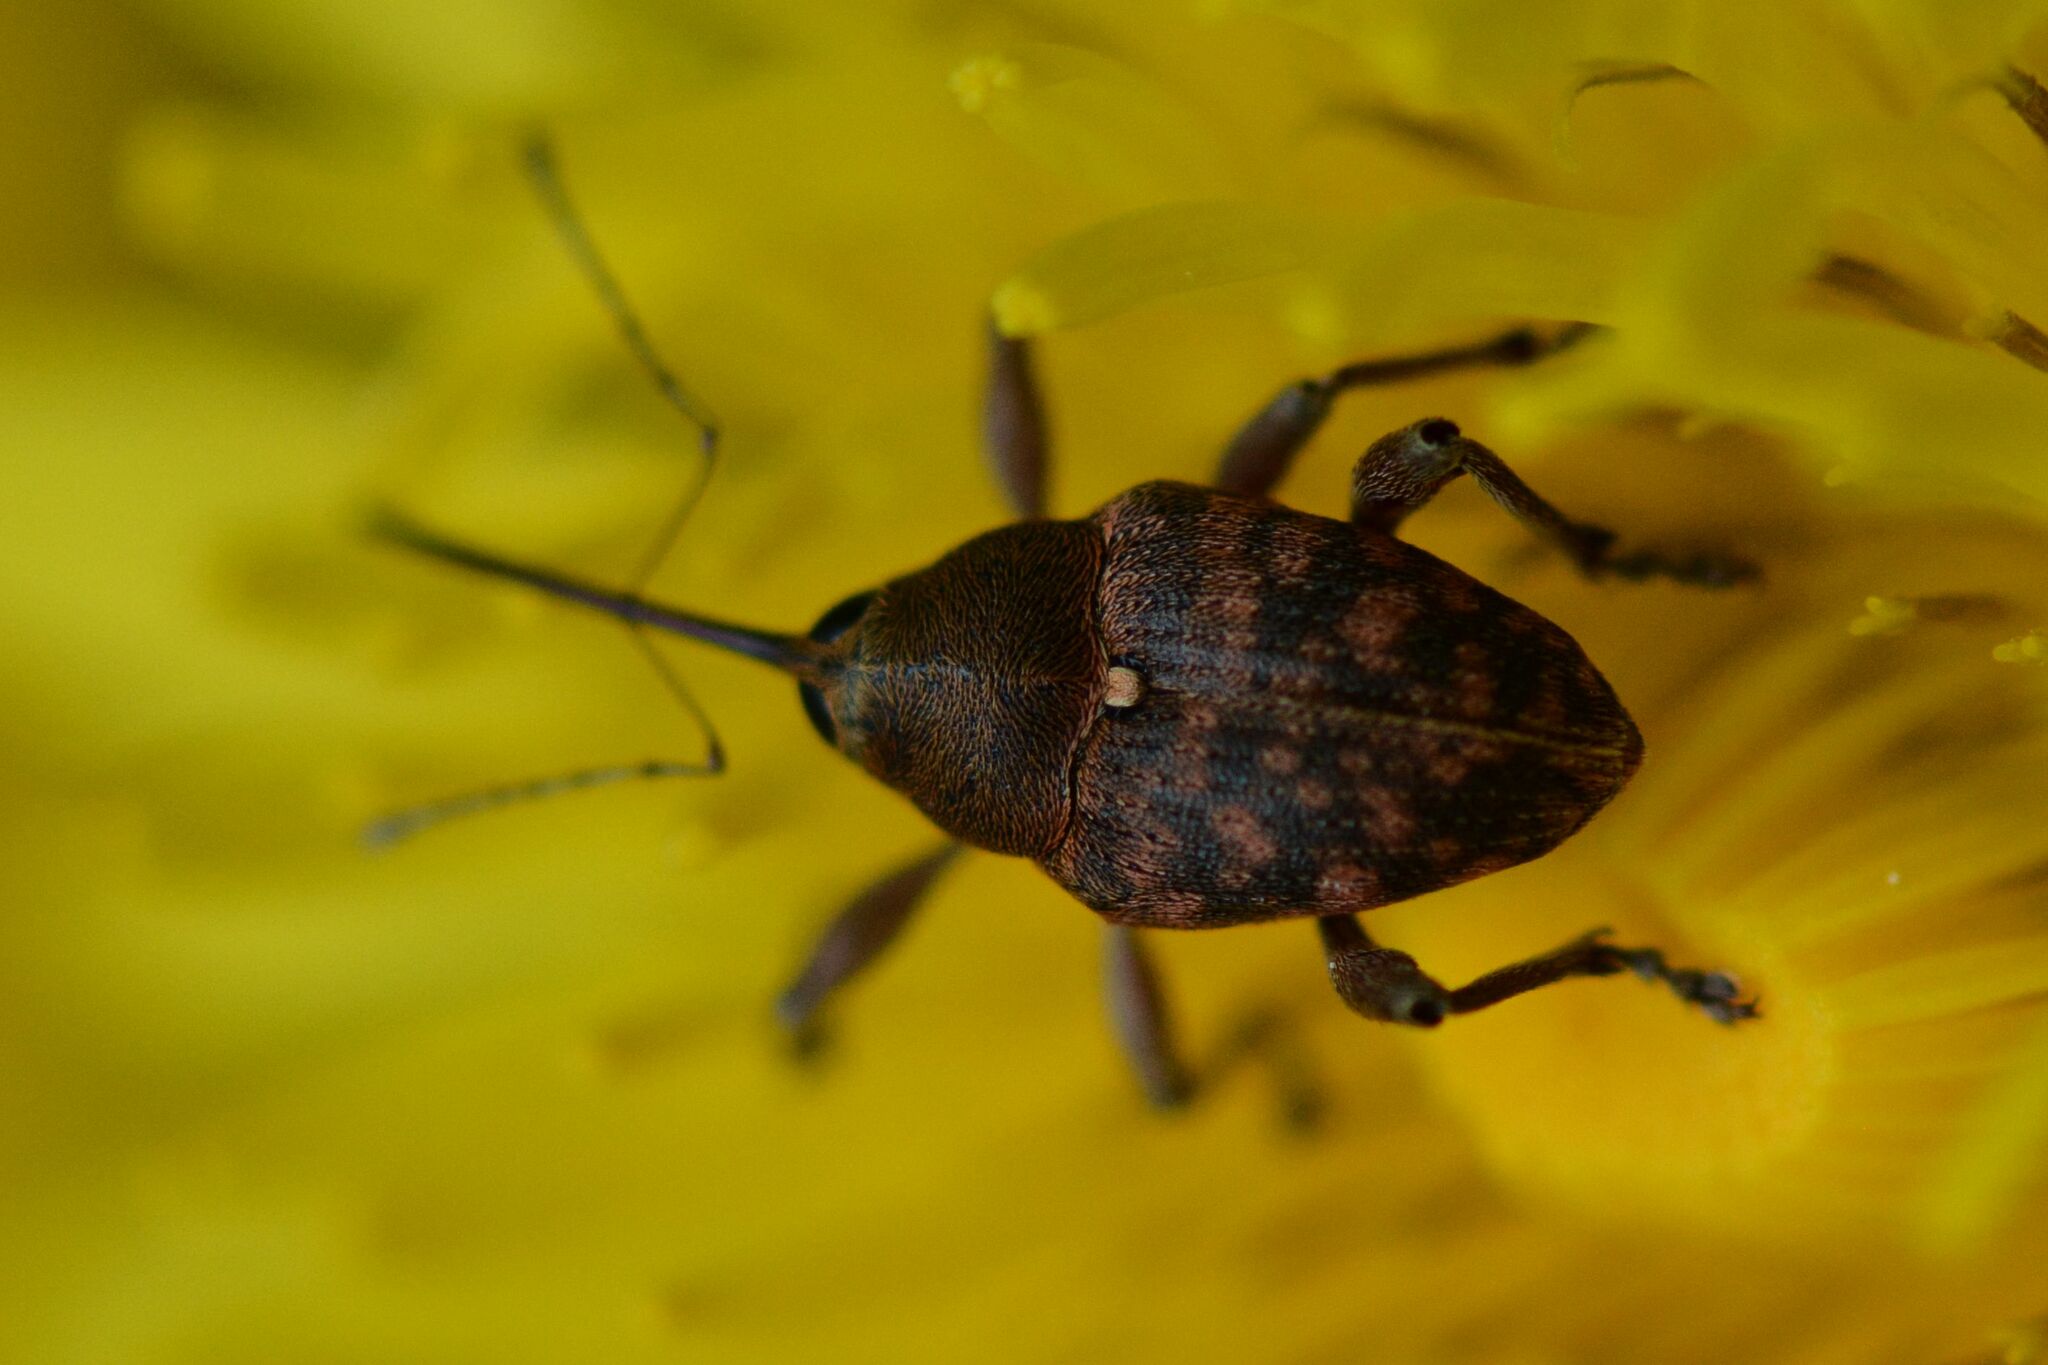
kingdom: Animalia
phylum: Arthropoda
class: Insecta
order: Coleoptera
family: Curculionidae
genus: Curculio
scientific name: Curculio glandium
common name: Acorn weevil
